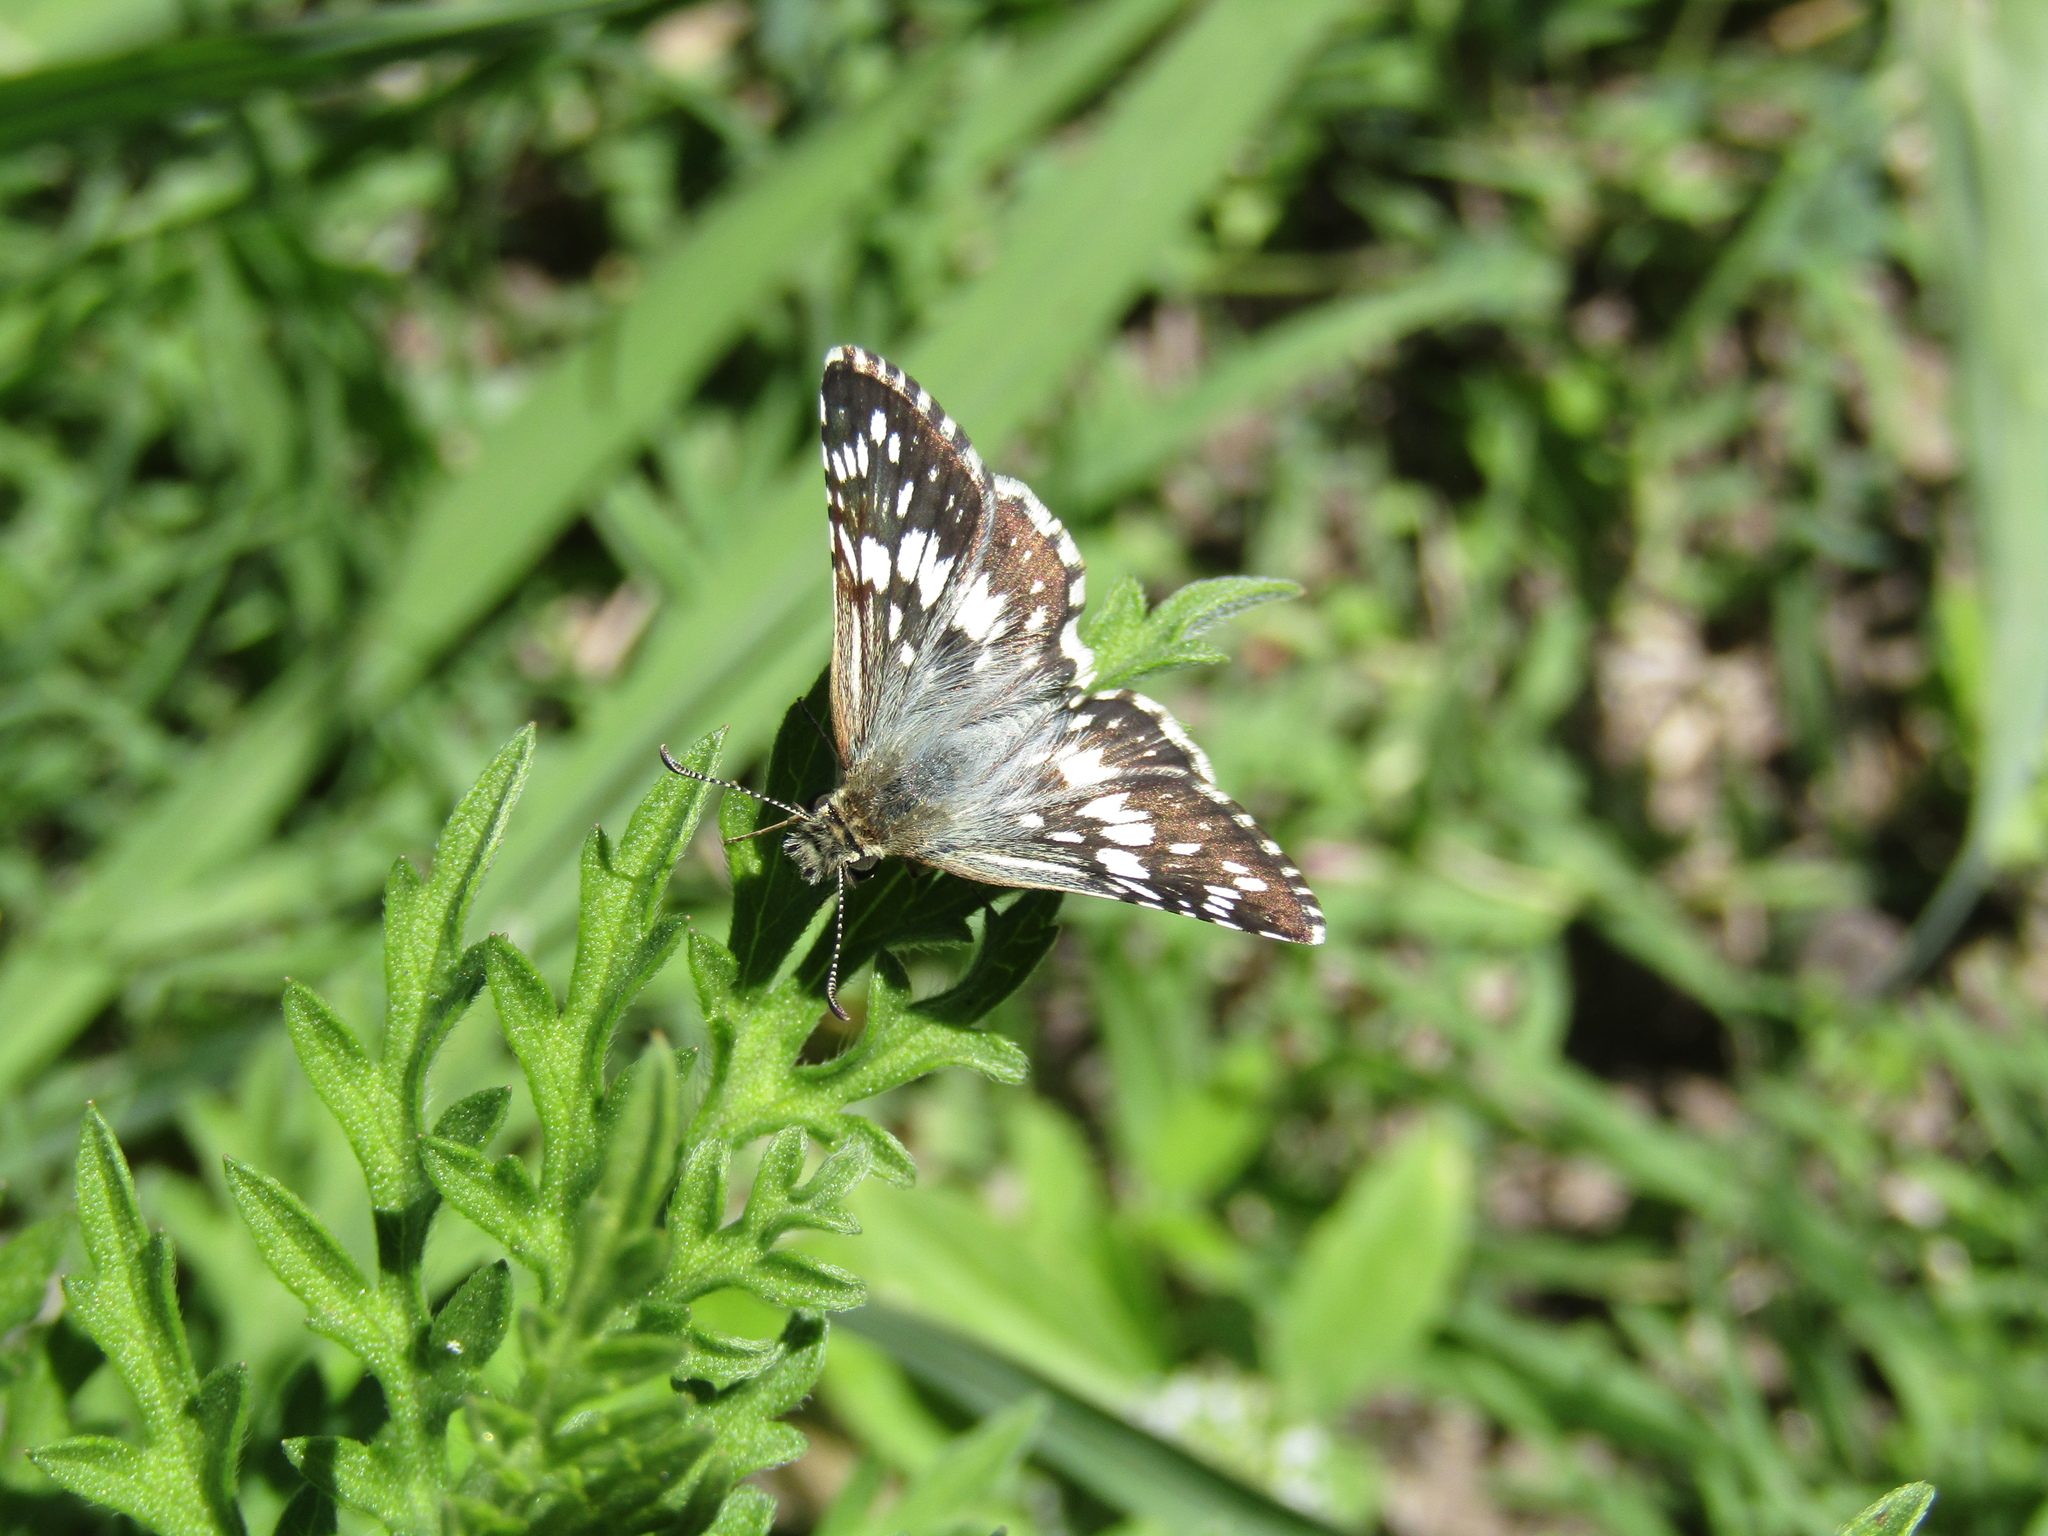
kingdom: Animalia
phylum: Arthropoda
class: Insecta
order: Lepidoptera
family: Hesperiidae
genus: Burnsius
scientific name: Burnsius orcynoides
